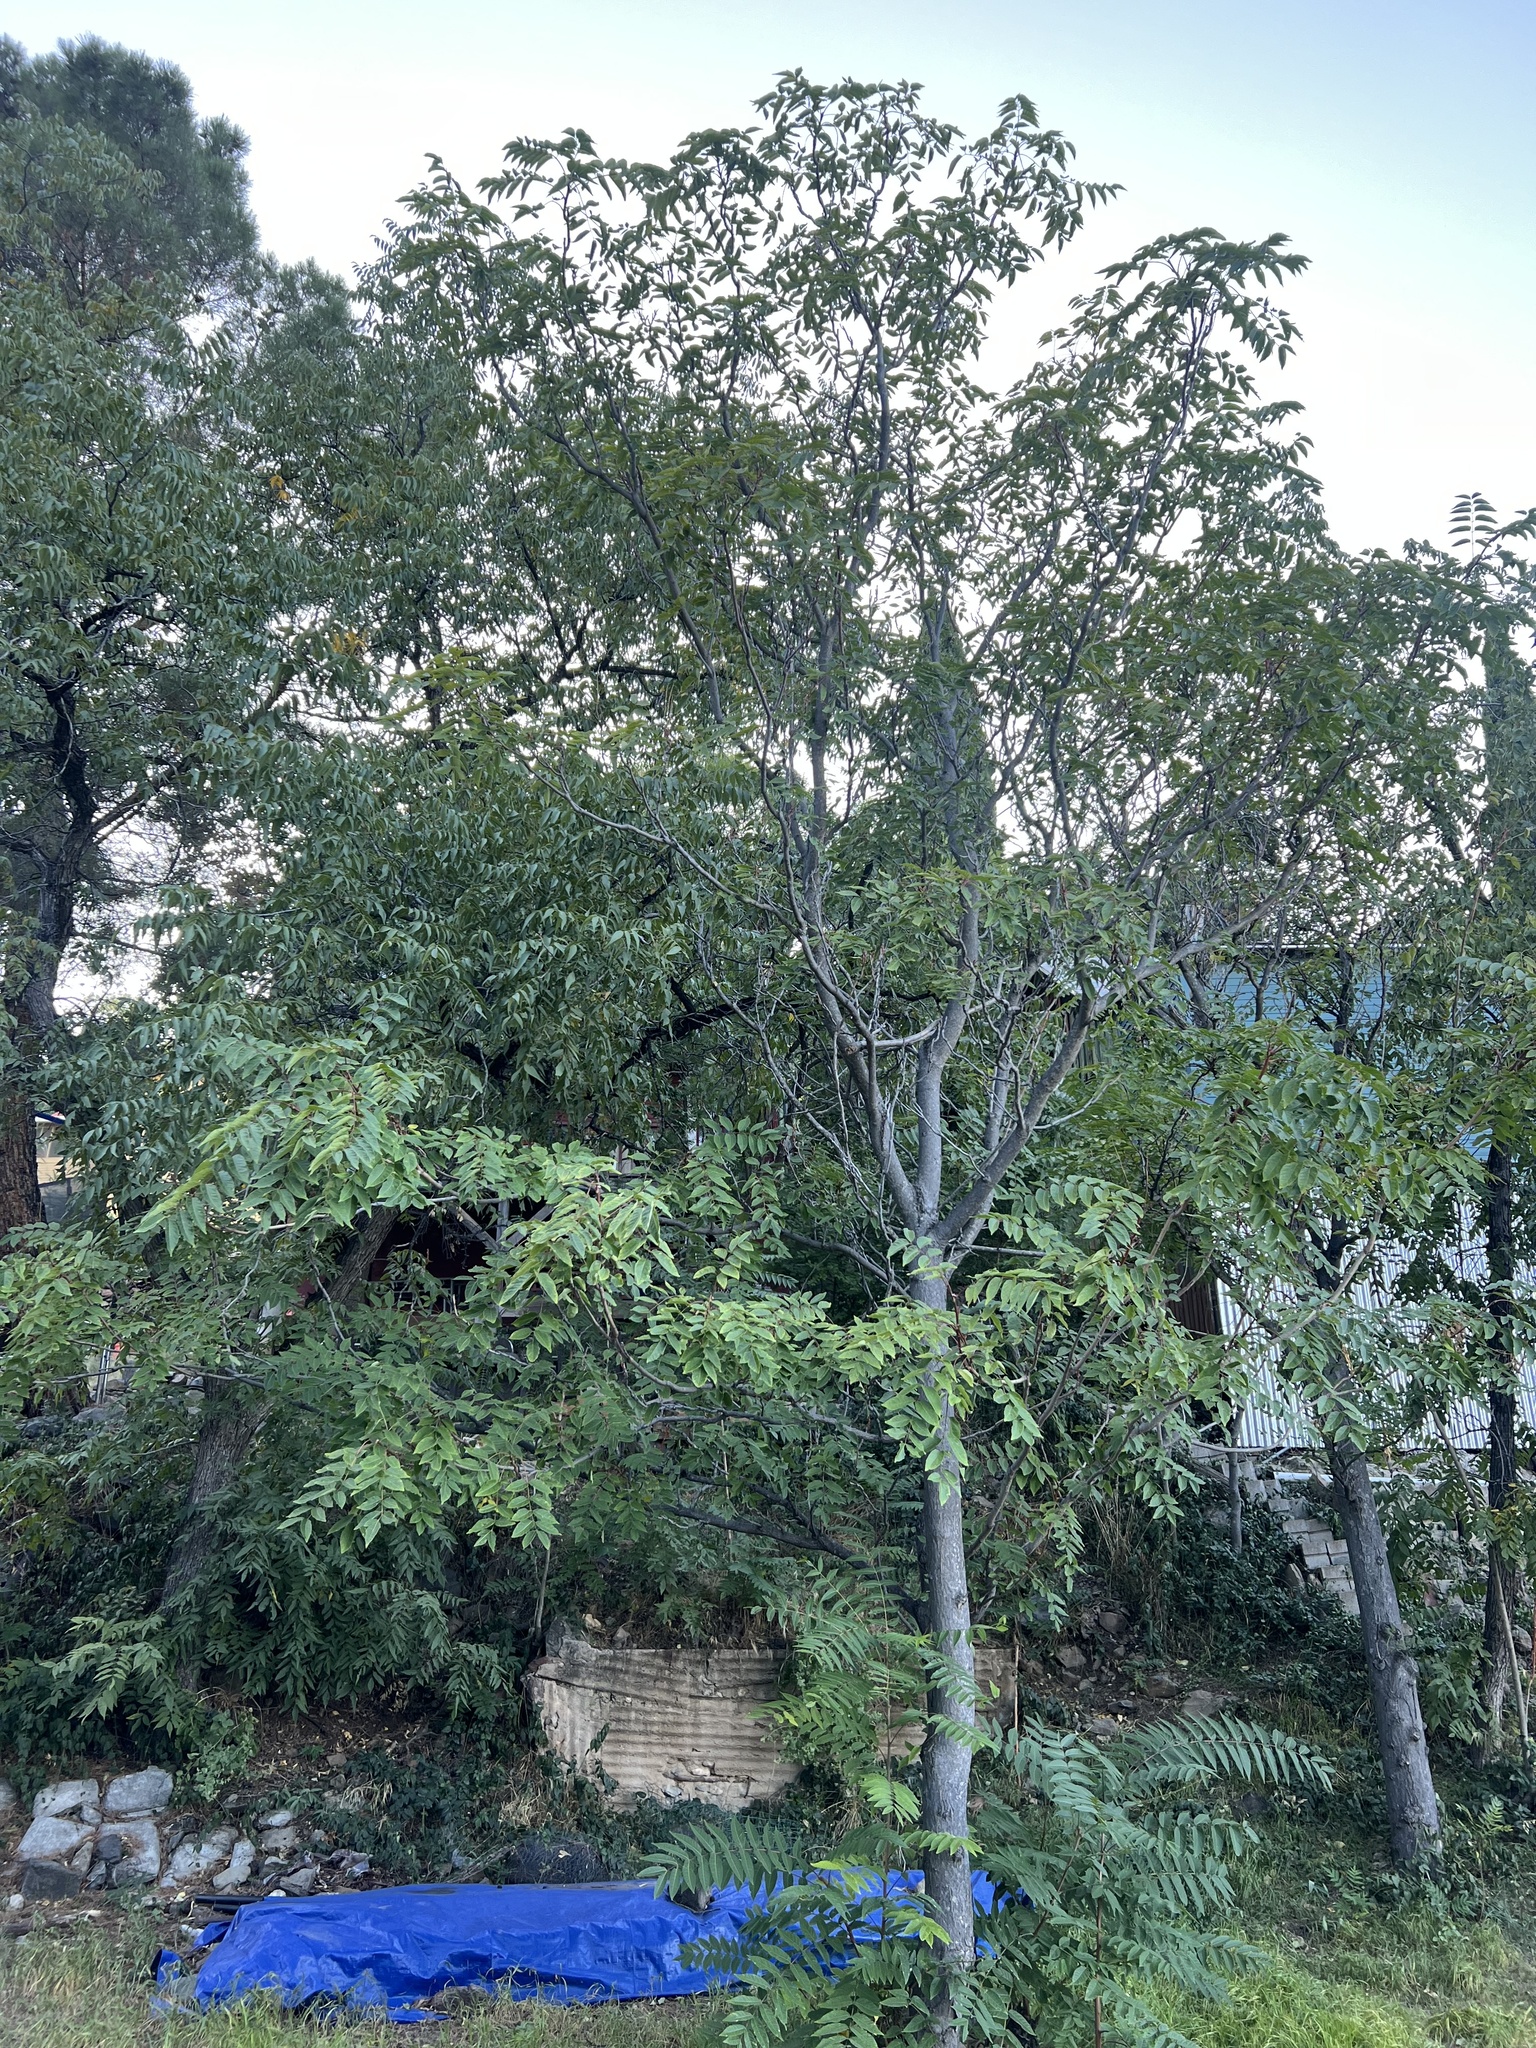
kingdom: Plantae
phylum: Tracheophyta
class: Magnoliopsida
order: Sapindales
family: Simaroubaceae
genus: Ailanthus
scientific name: Ailanthus altissima
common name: Tree-of-heaven
